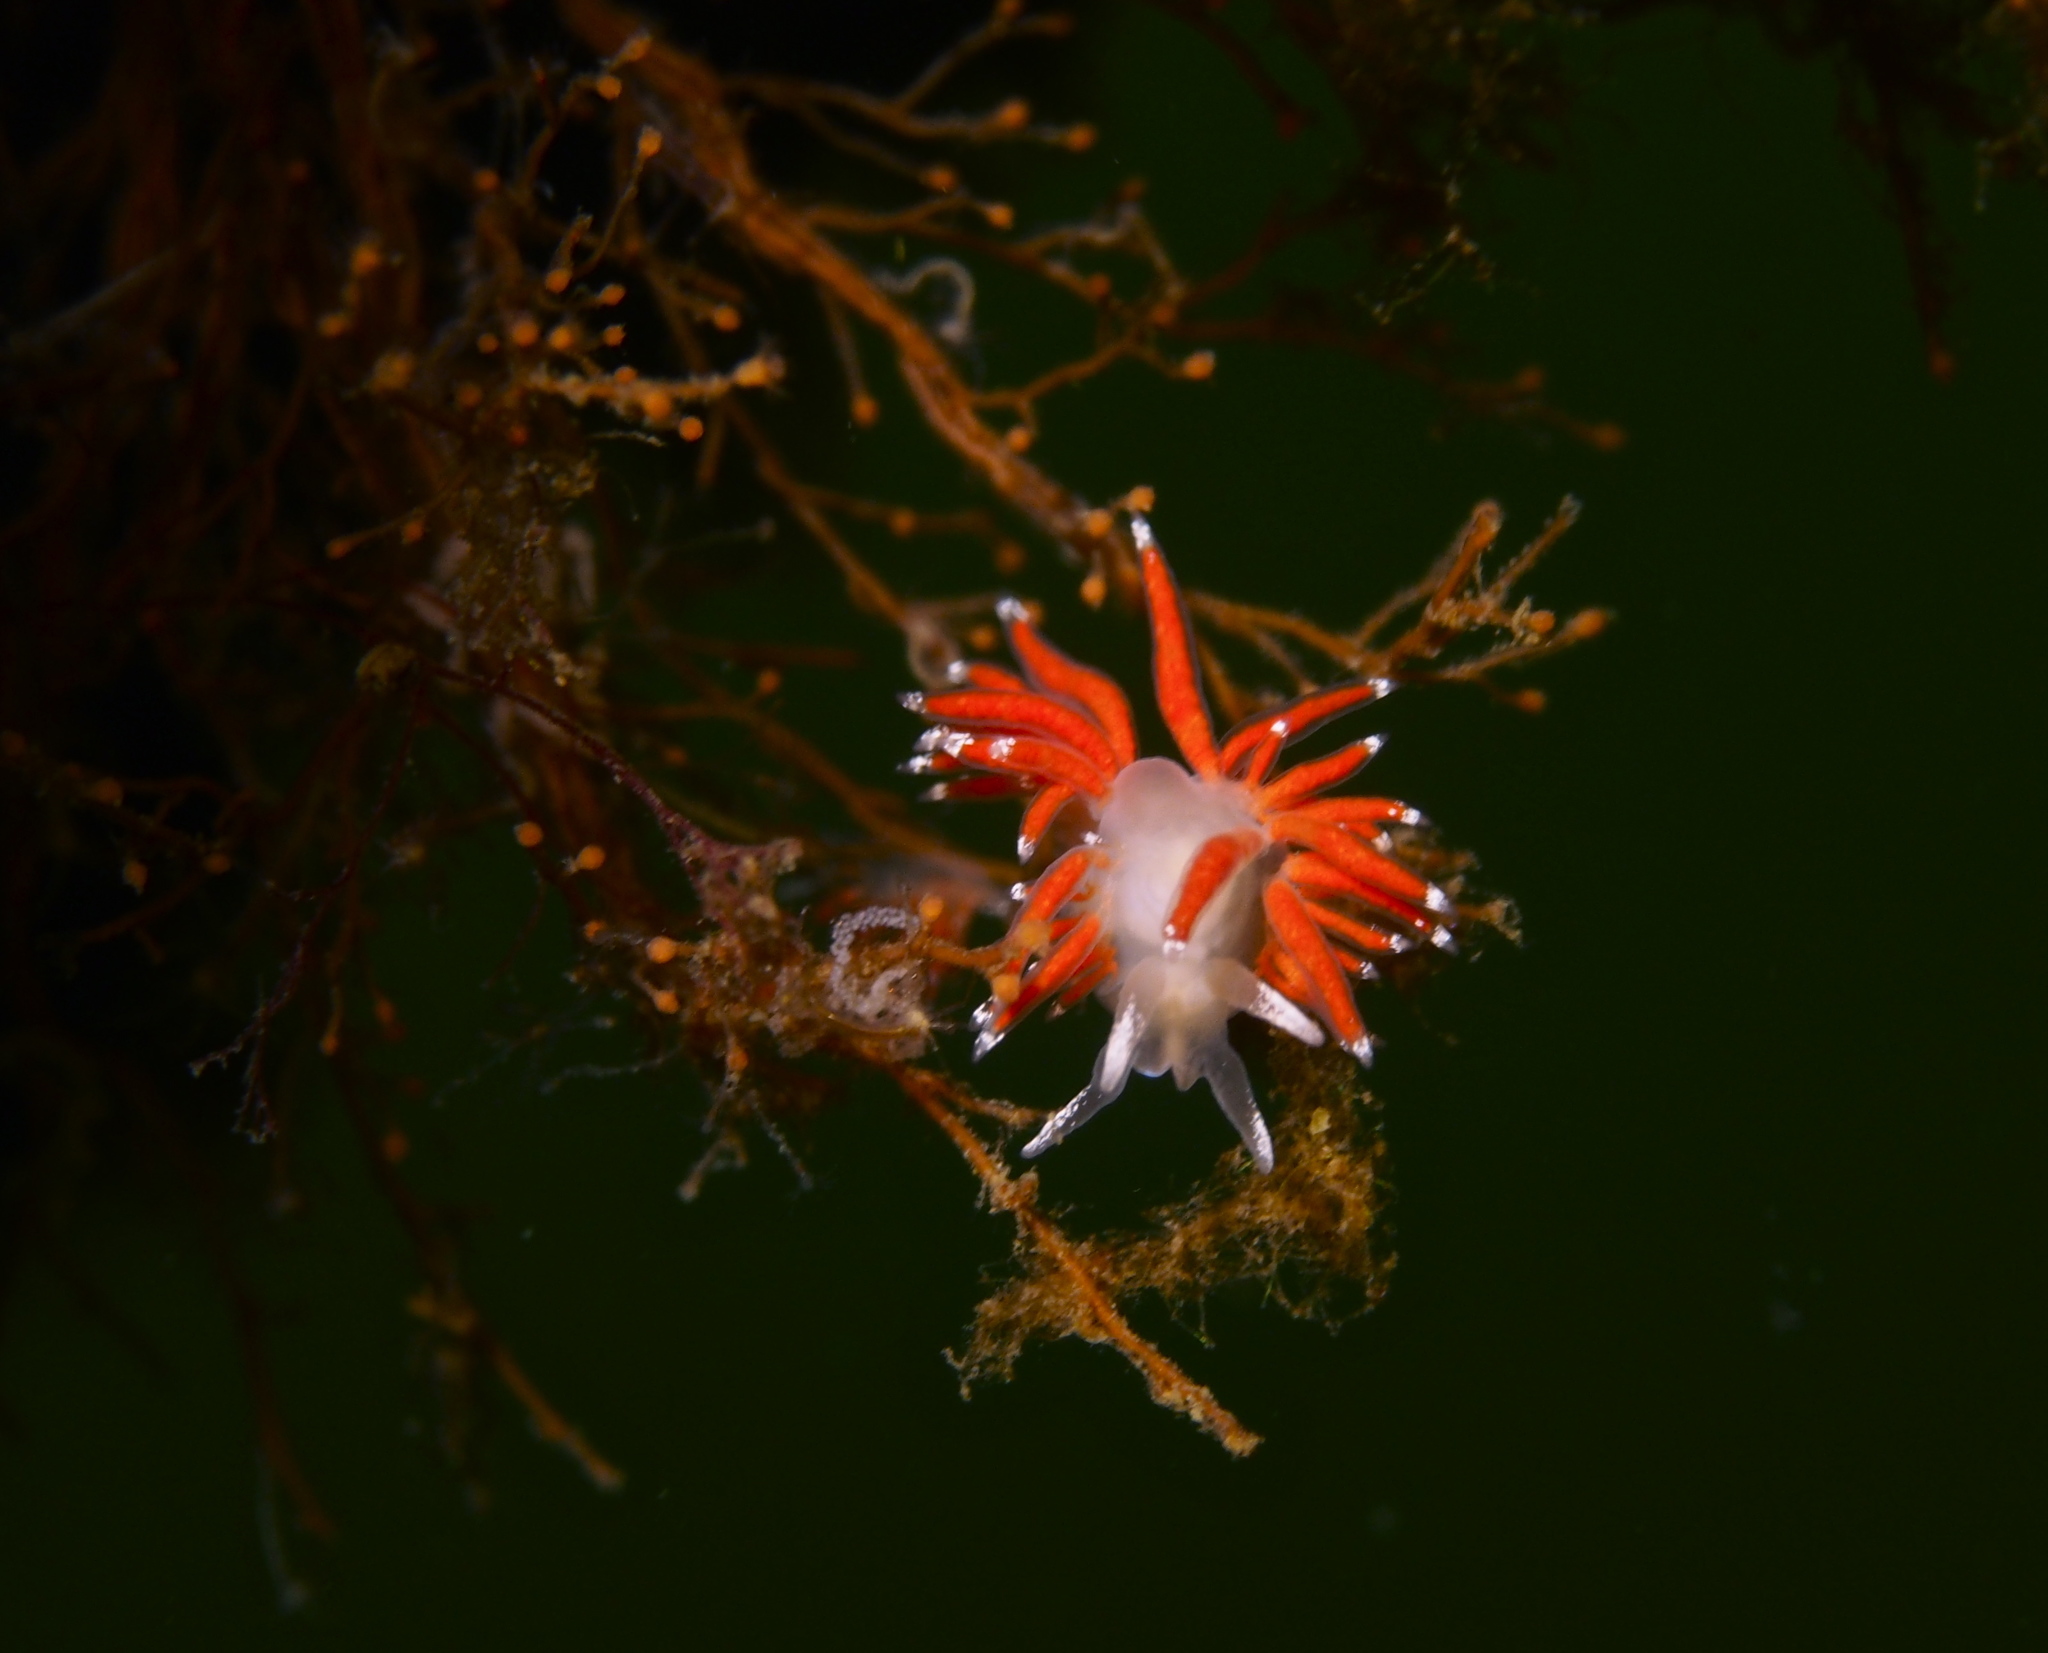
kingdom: Animalia
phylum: Mollusca
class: Gastropoda
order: Nudibranchia
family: Coryphellidae
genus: Coryphella
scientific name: Coryphella gracilis
